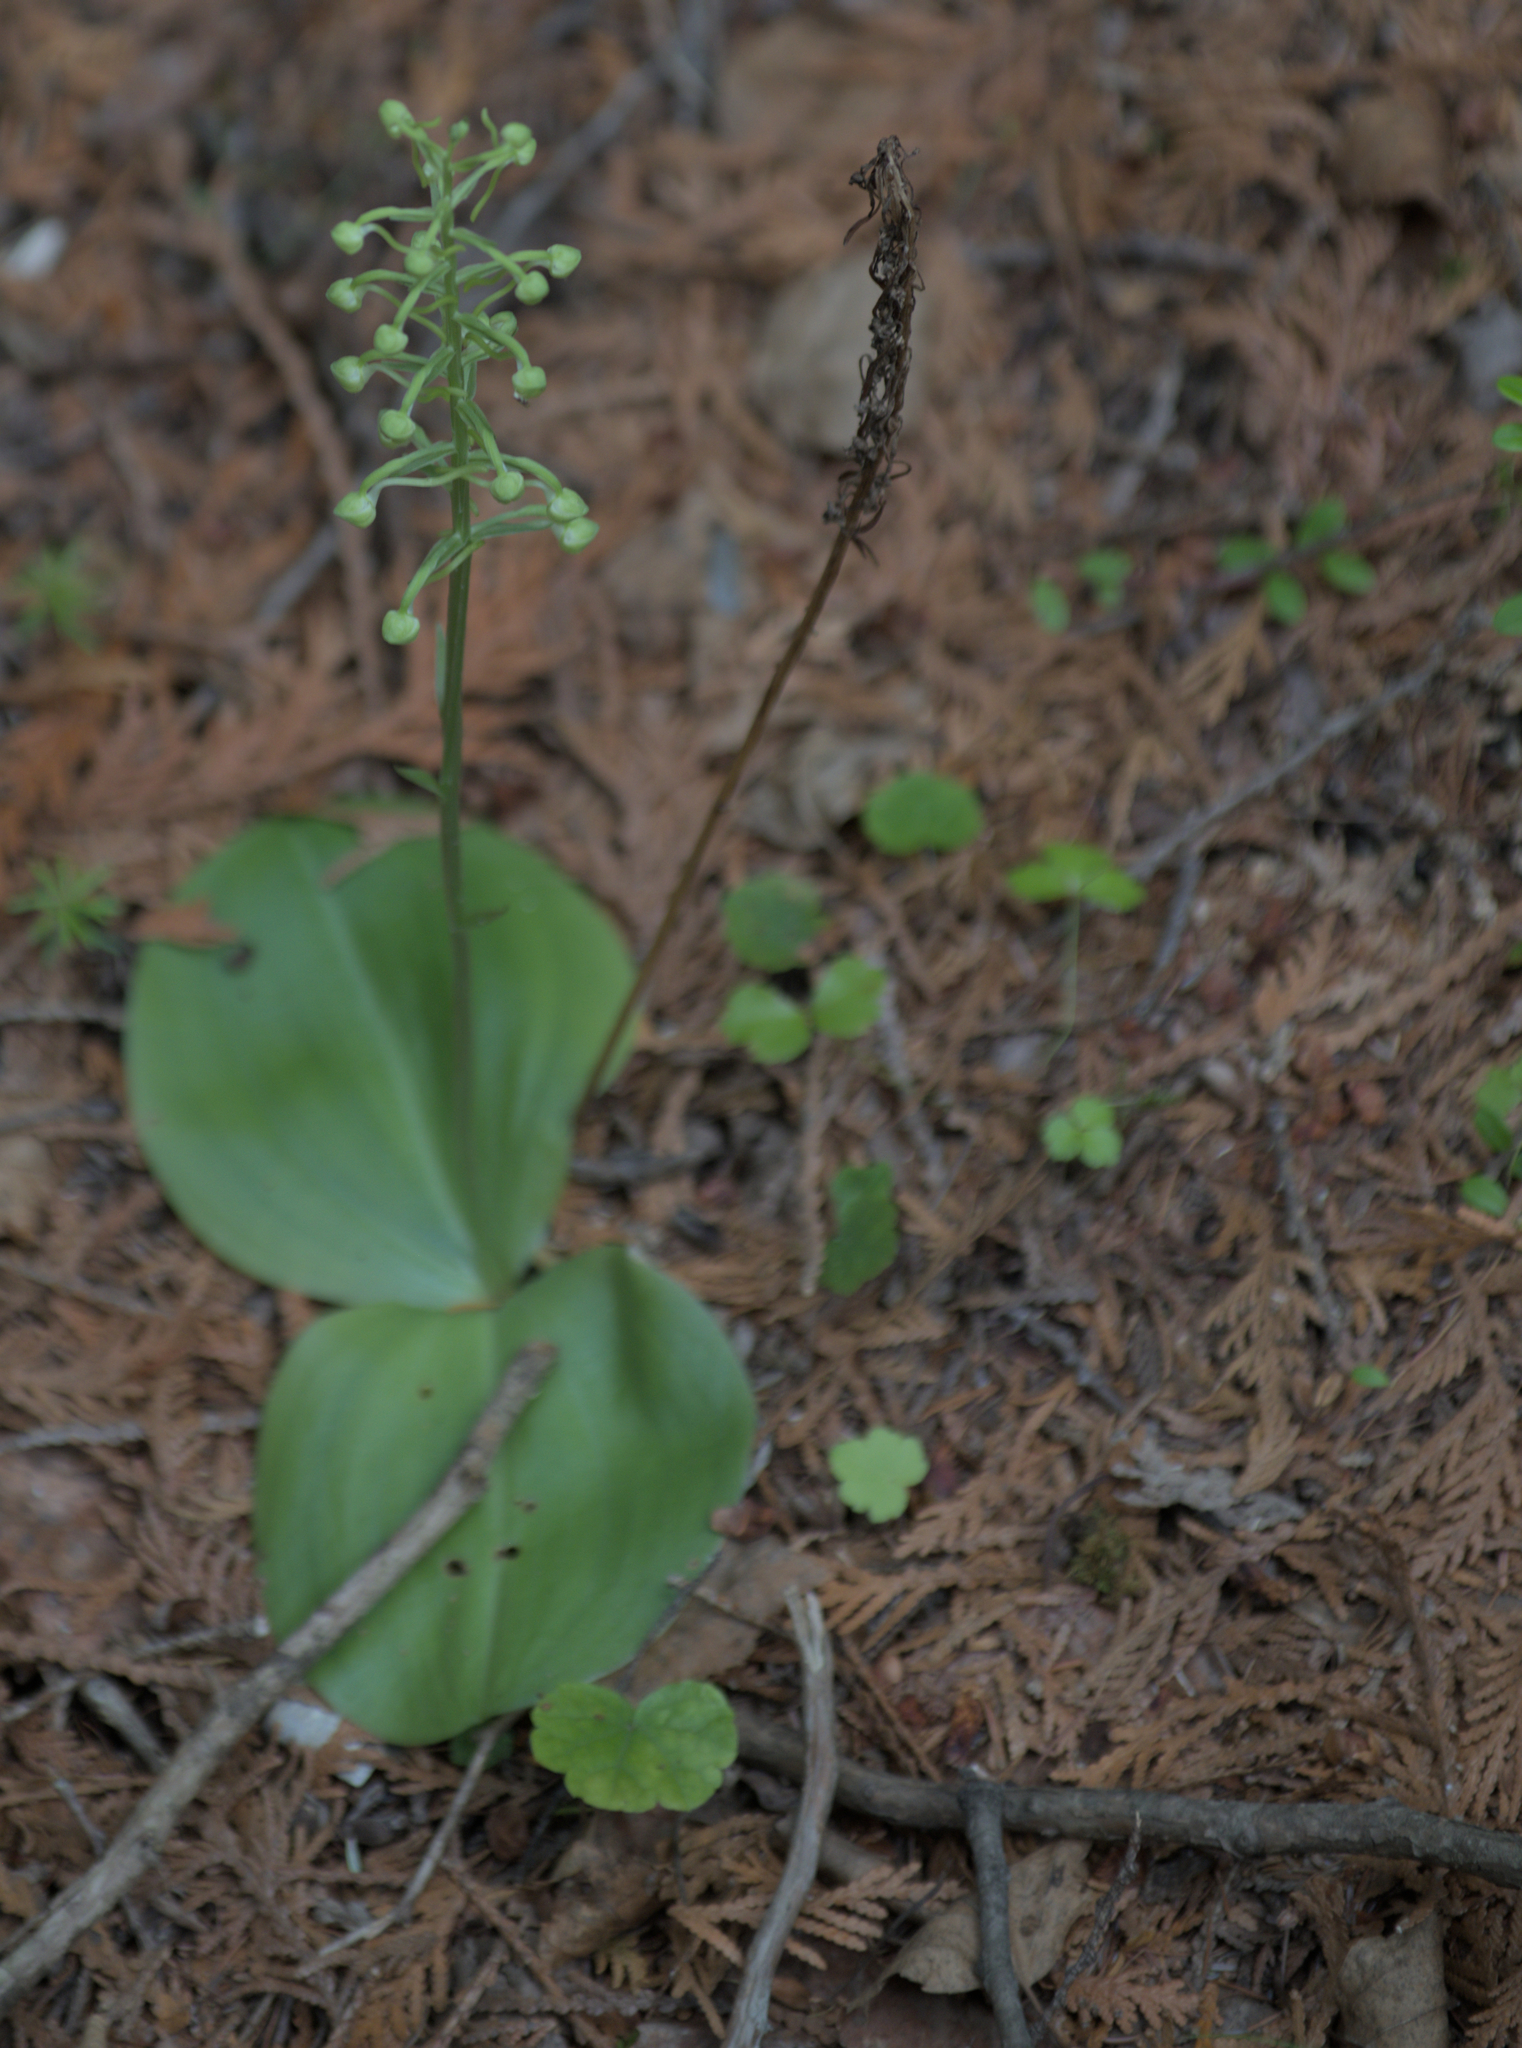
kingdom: Plantae
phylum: Tracheophyta
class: Liliopsida
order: Asparagales
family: Orchidaceae
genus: Platanthera
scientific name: Platanthera orbiculata
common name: Large round-leaved orchid
